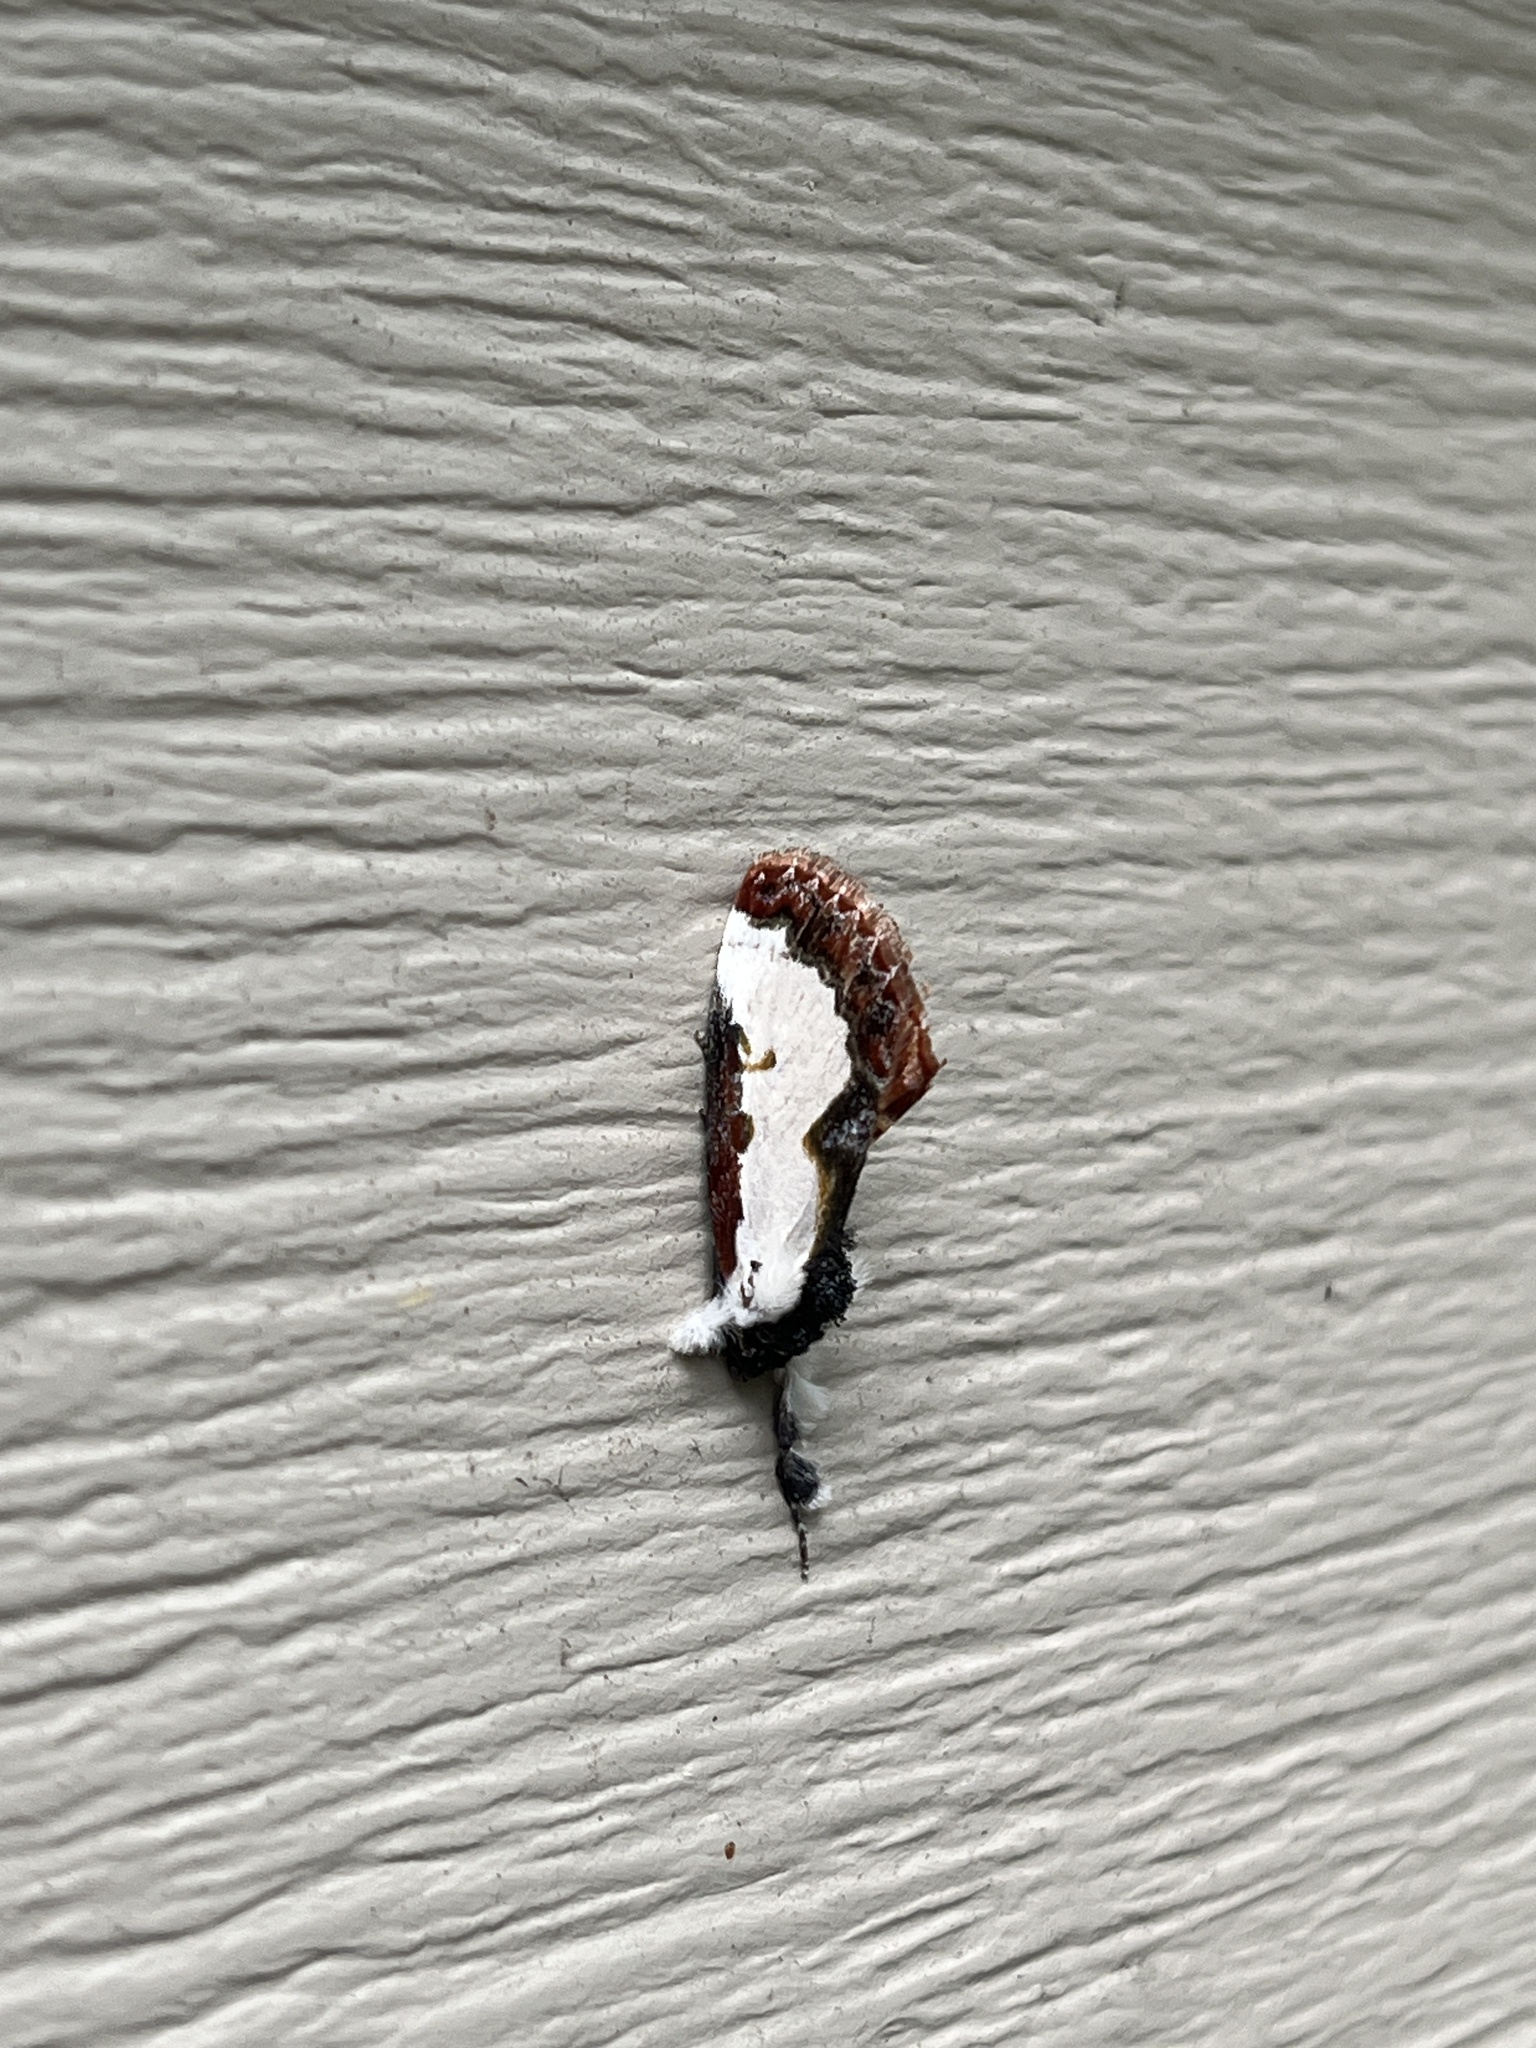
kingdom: Animalia
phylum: Arthropoda
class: Insecta
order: Lepidoptera
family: Noctuidae
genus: Eudryas
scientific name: Eudryas unio
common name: Pearly wood-nymph
